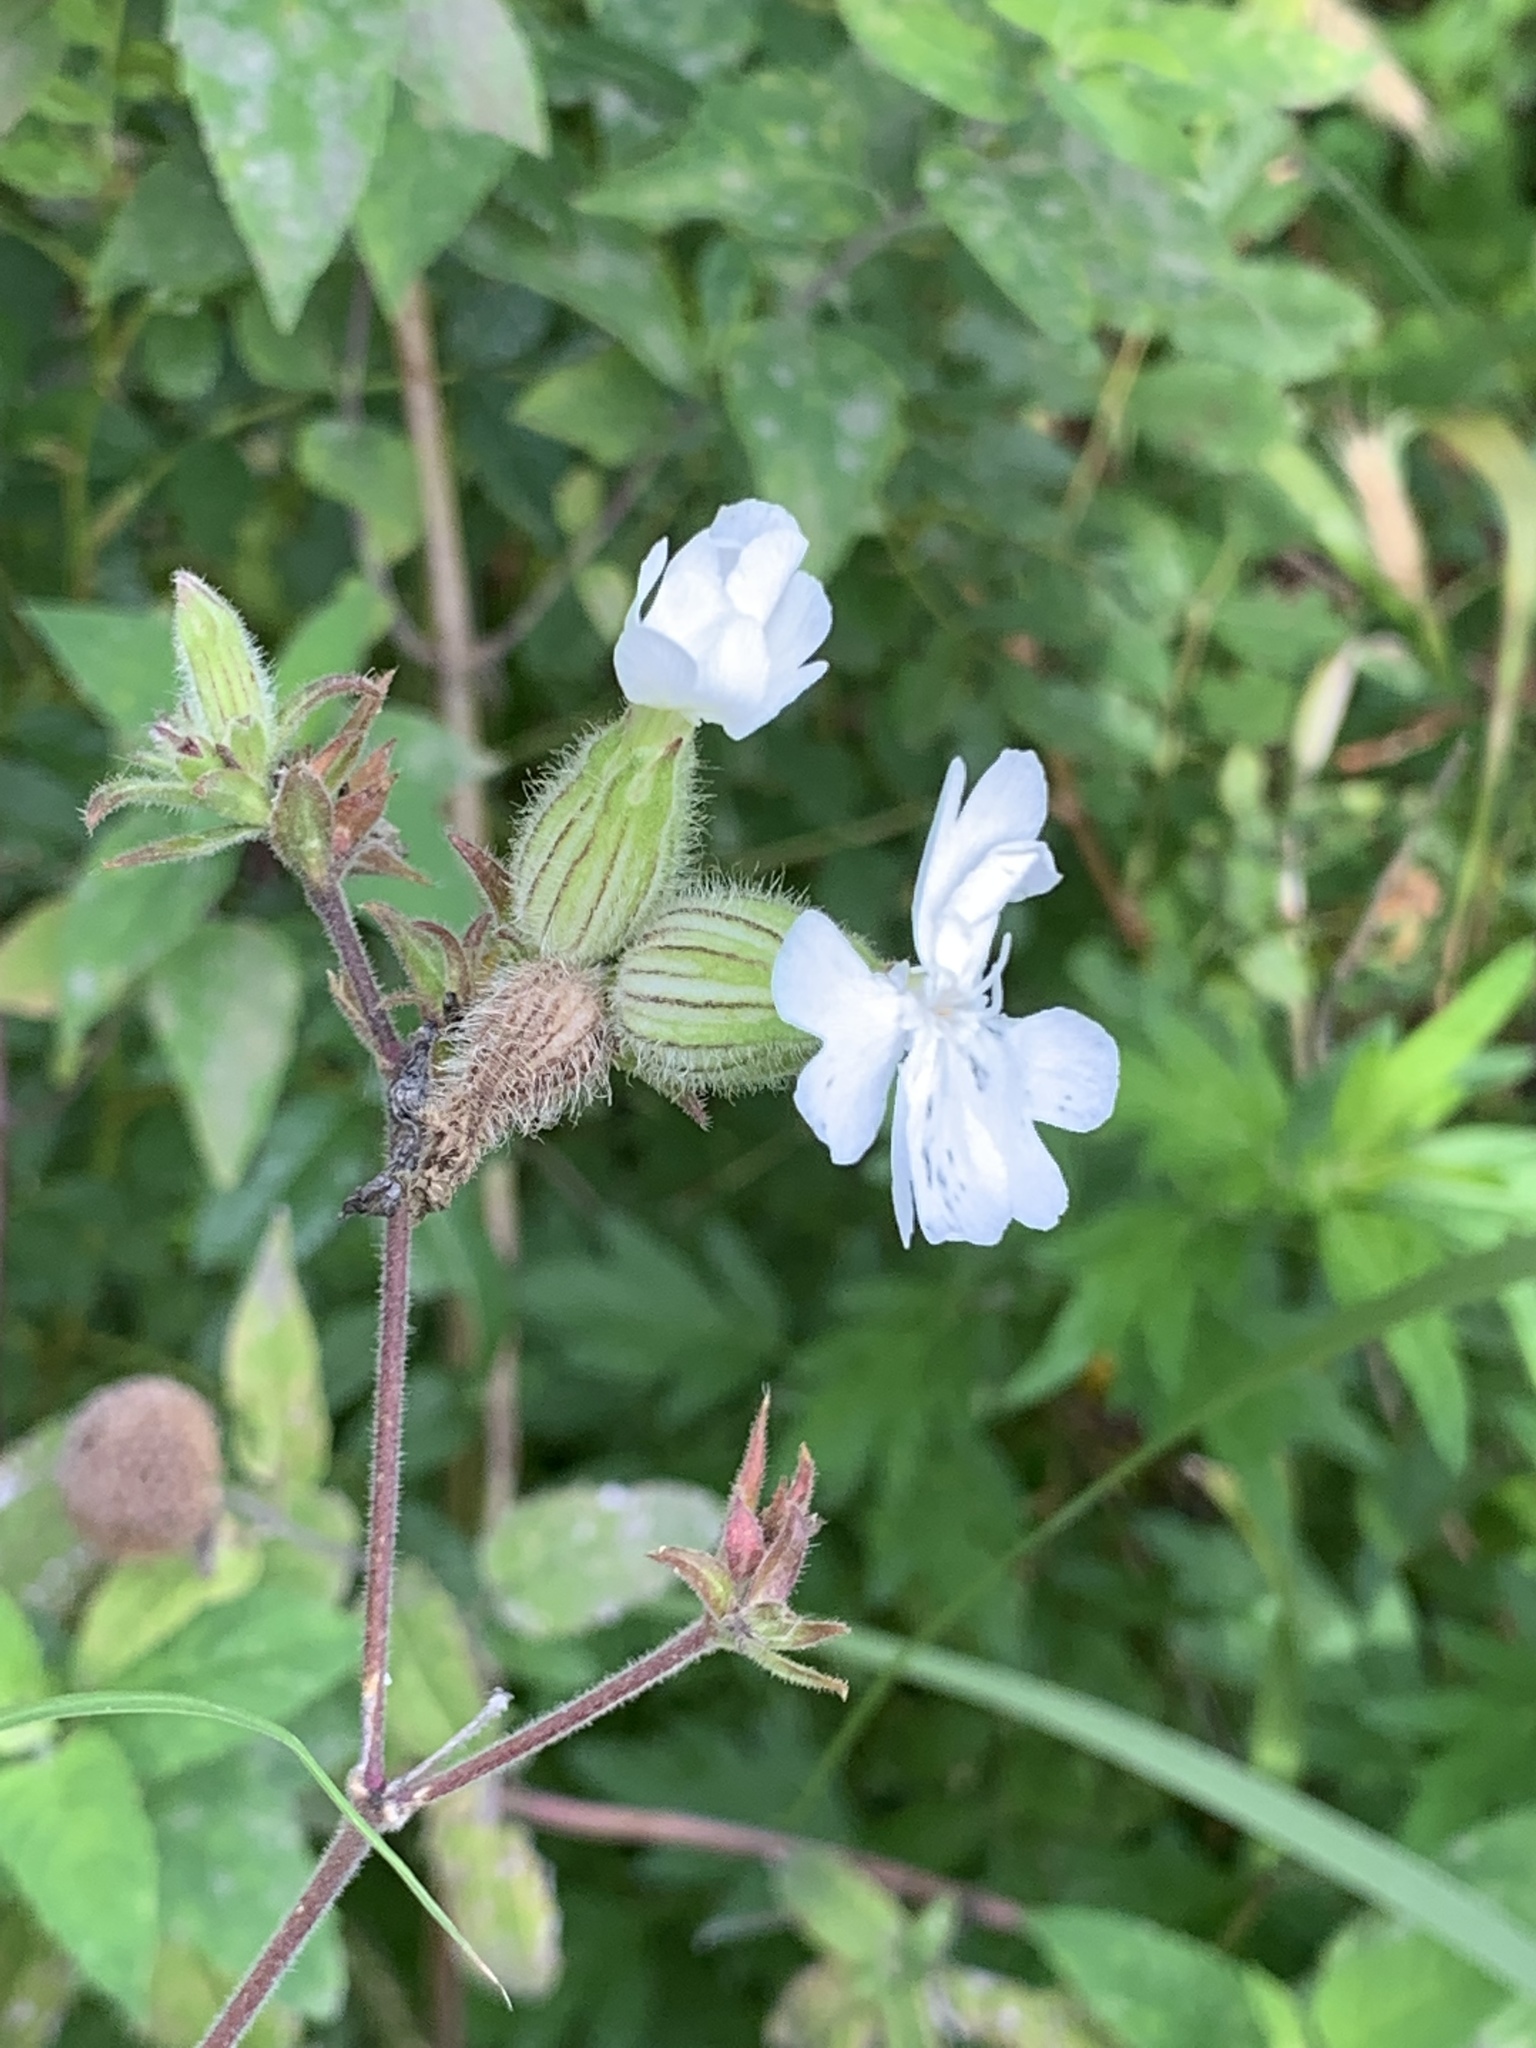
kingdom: Plantae
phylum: Tracheophyta
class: Magnoliopsida
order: Caryophyllales
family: Caryophyllaceae
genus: Silene
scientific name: Silene latifolia
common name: White campion
